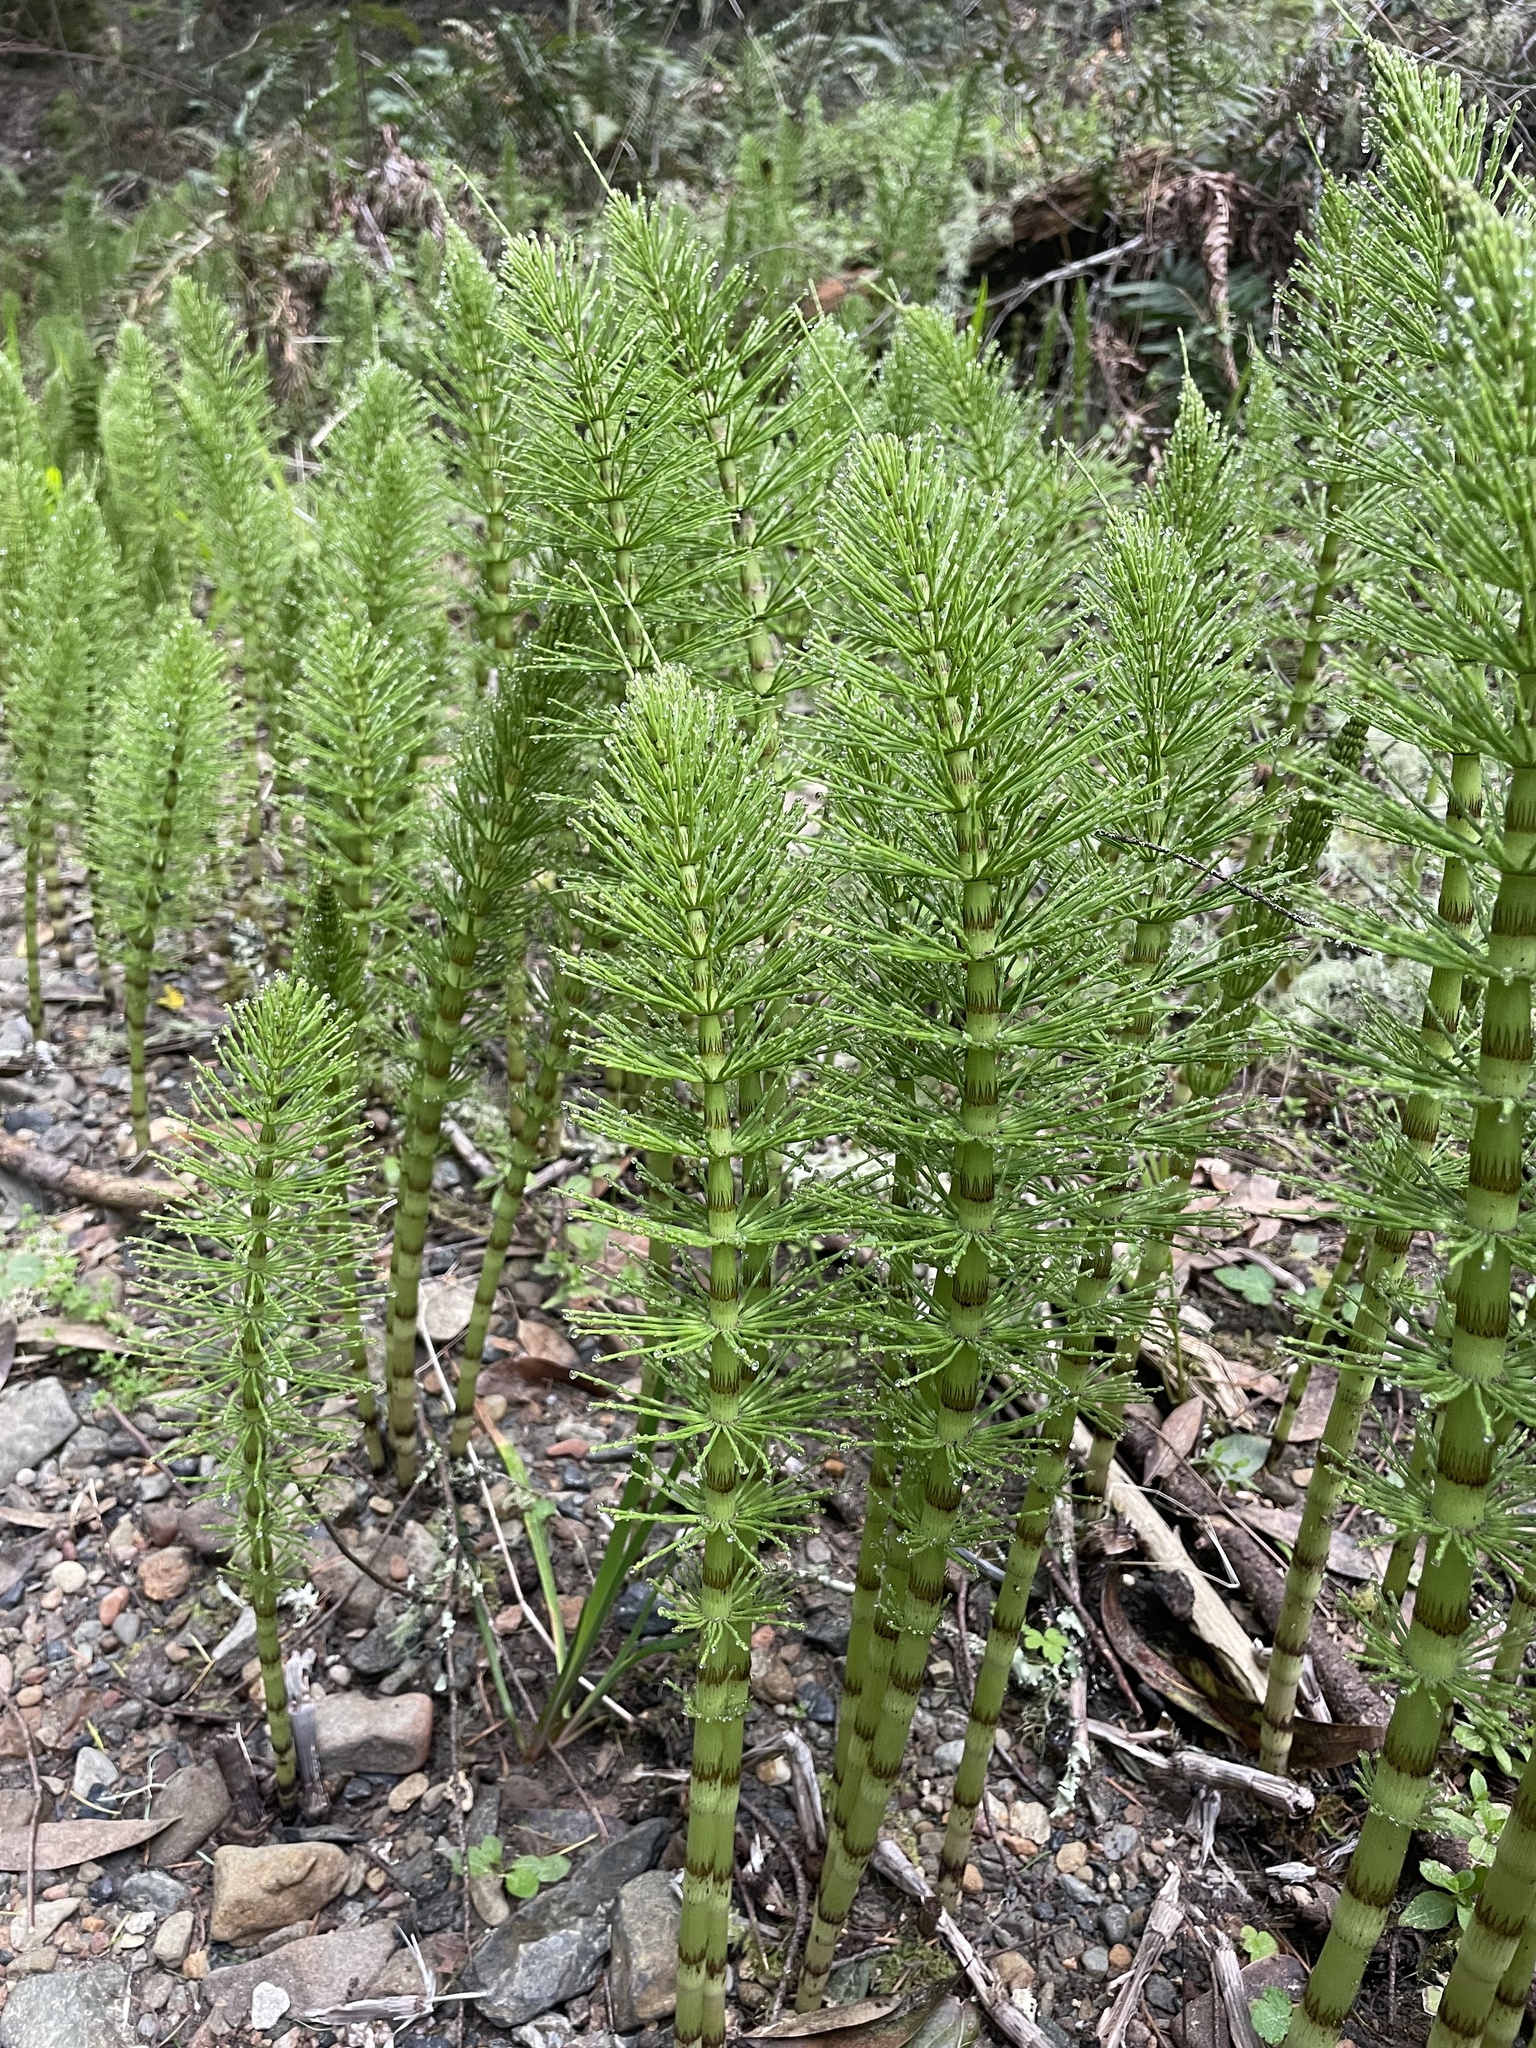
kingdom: Plantae
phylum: Tracheophyta
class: Polypodiopsida
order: Equisetales
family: Equisetaceae
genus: Equisetum
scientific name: Equisetum telmateia
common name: Great horsetail
